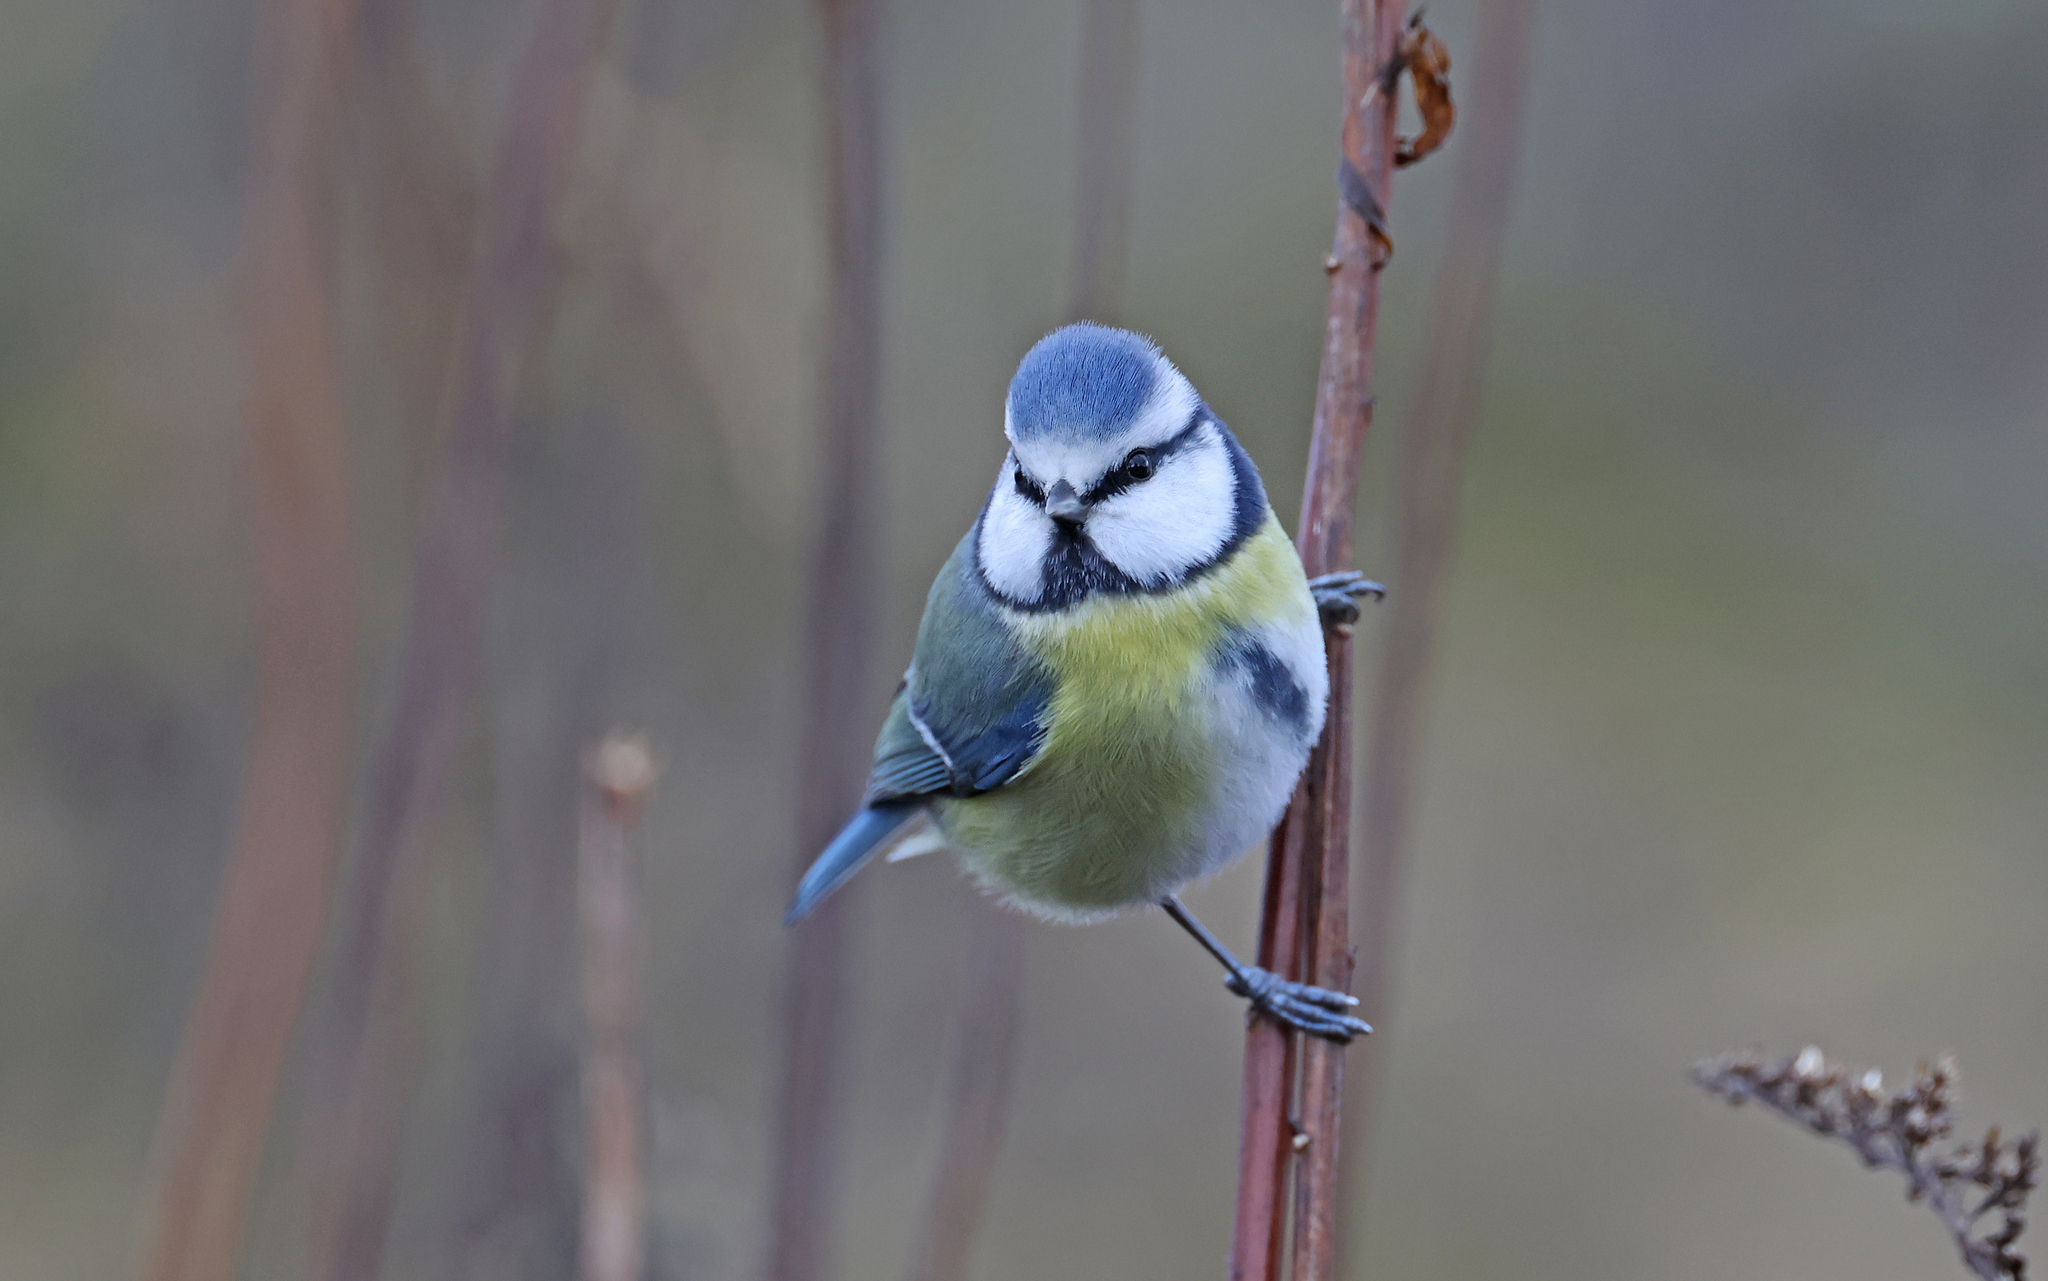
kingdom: Animalia
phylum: Chordata
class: Aves
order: Passeriformes
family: Paridae
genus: Cyanistes
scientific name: Cyanistes caeruleus
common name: Eurasian blue tit
